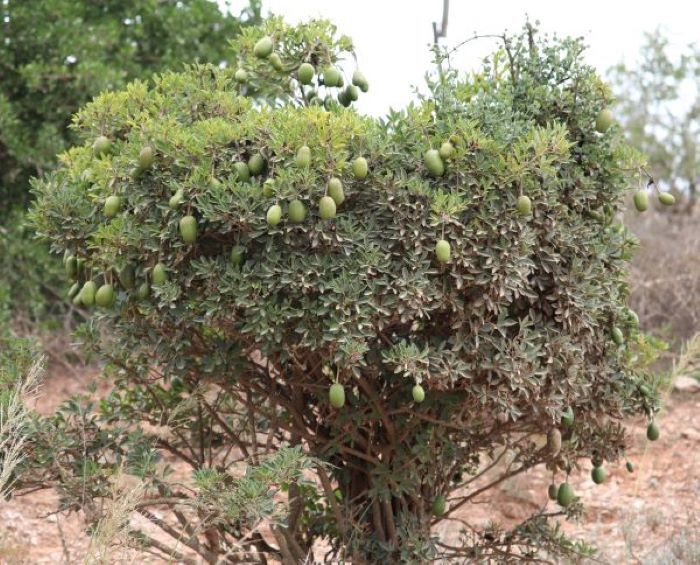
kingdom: Plantae
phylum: Tracheophyta
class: Magnoliopsida
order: Brassicales
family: Capparaceae
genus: Maerua
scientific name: Maerua cafra
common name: Bush maerua
